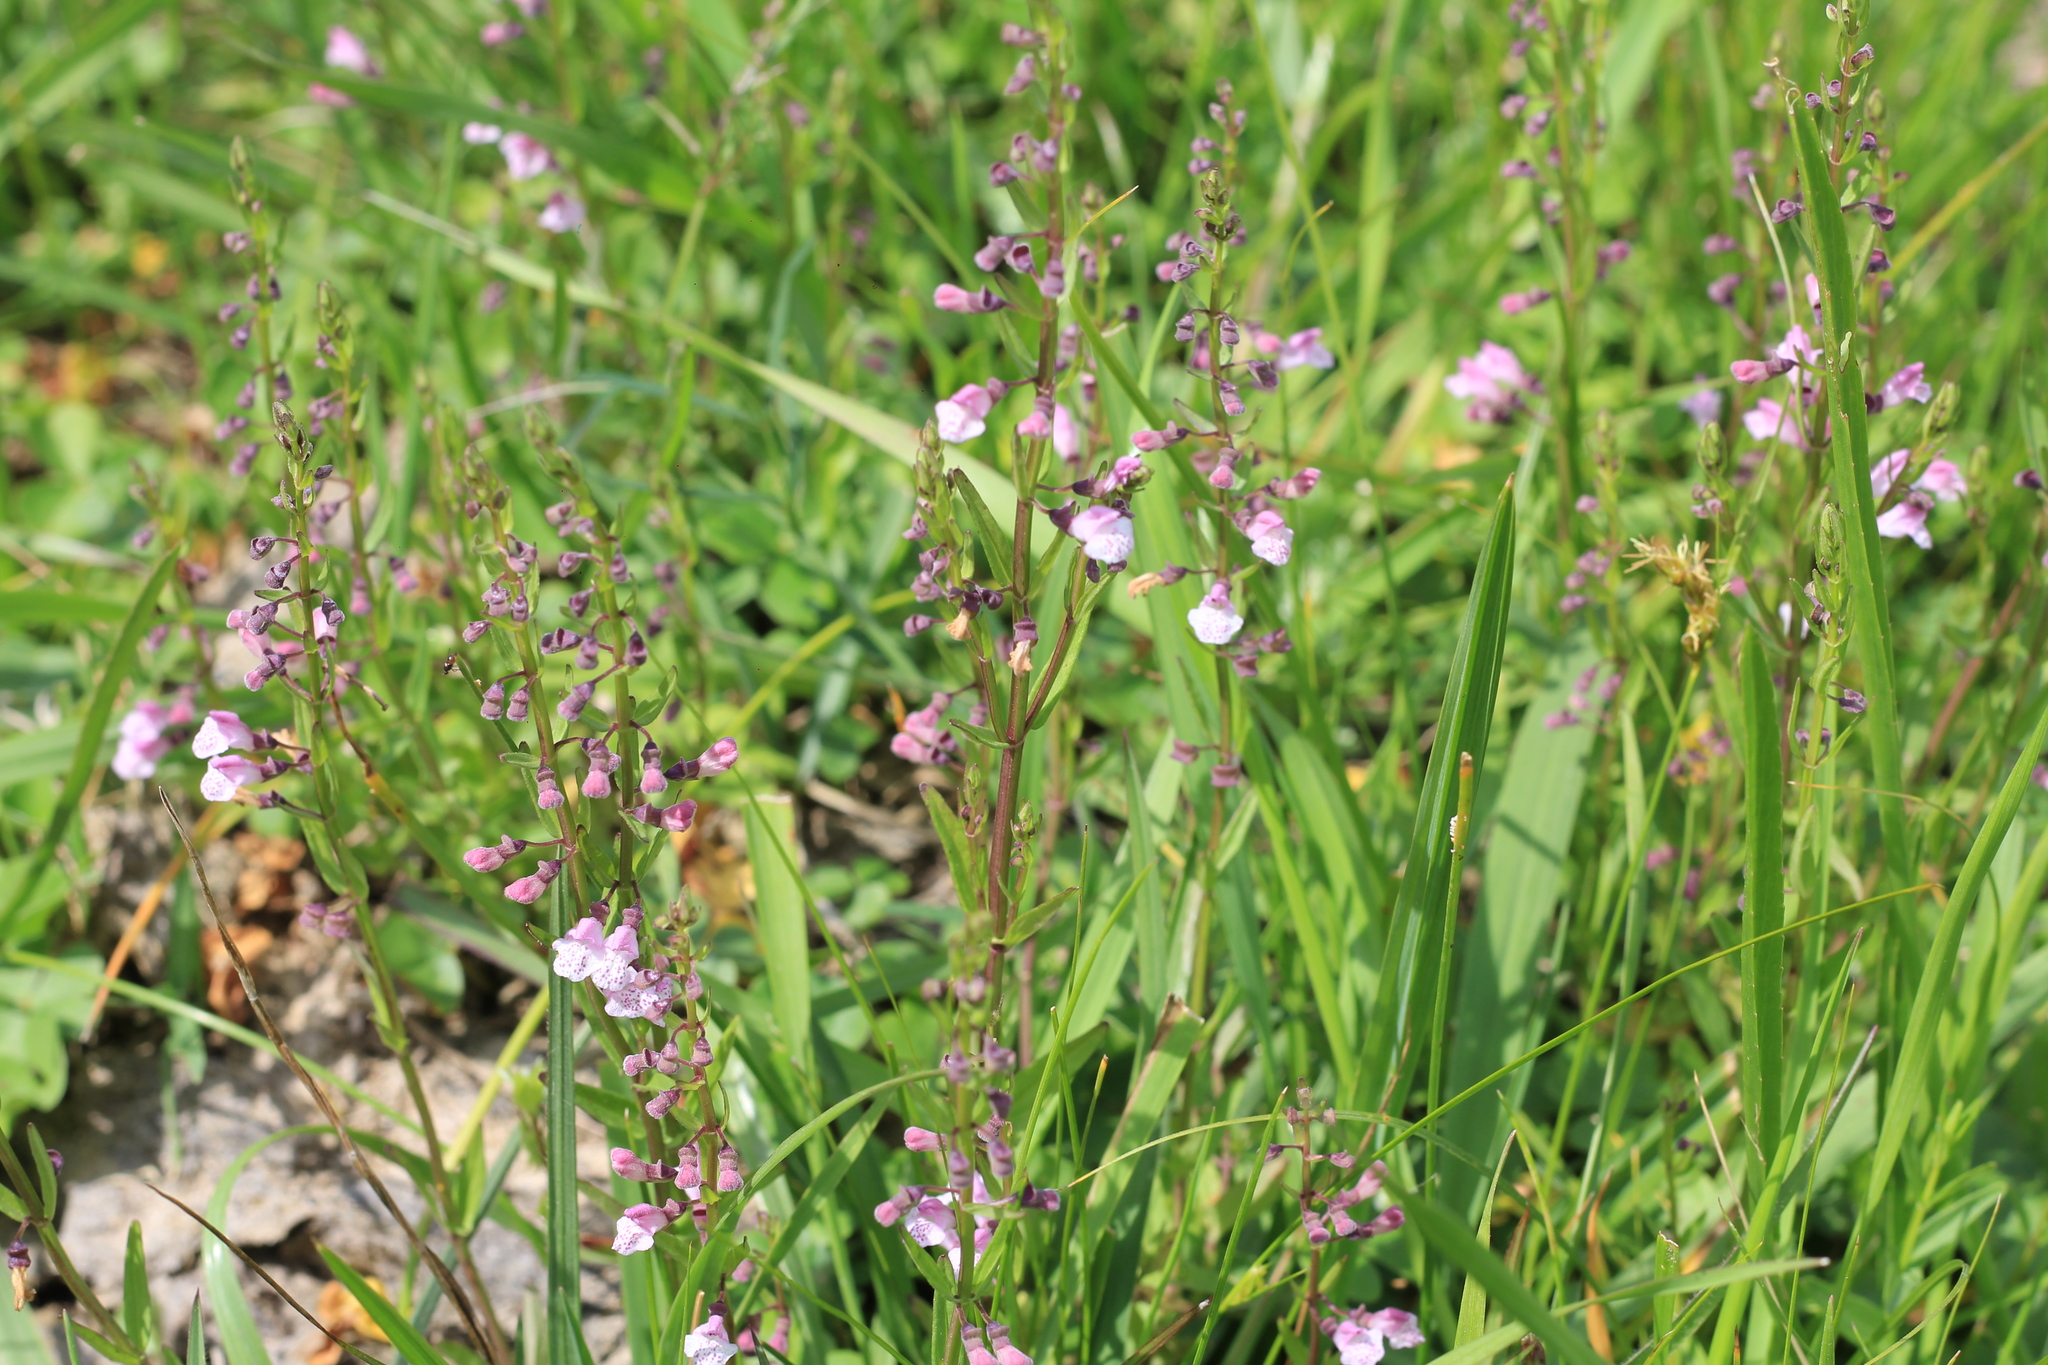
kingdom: Plantae
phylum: Tracheophyta
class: Magnoliopsida
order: Lamiales
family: Lamiaceae
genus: Scutellaria
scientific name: Scutellaria racemosa
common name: South american skullcap
